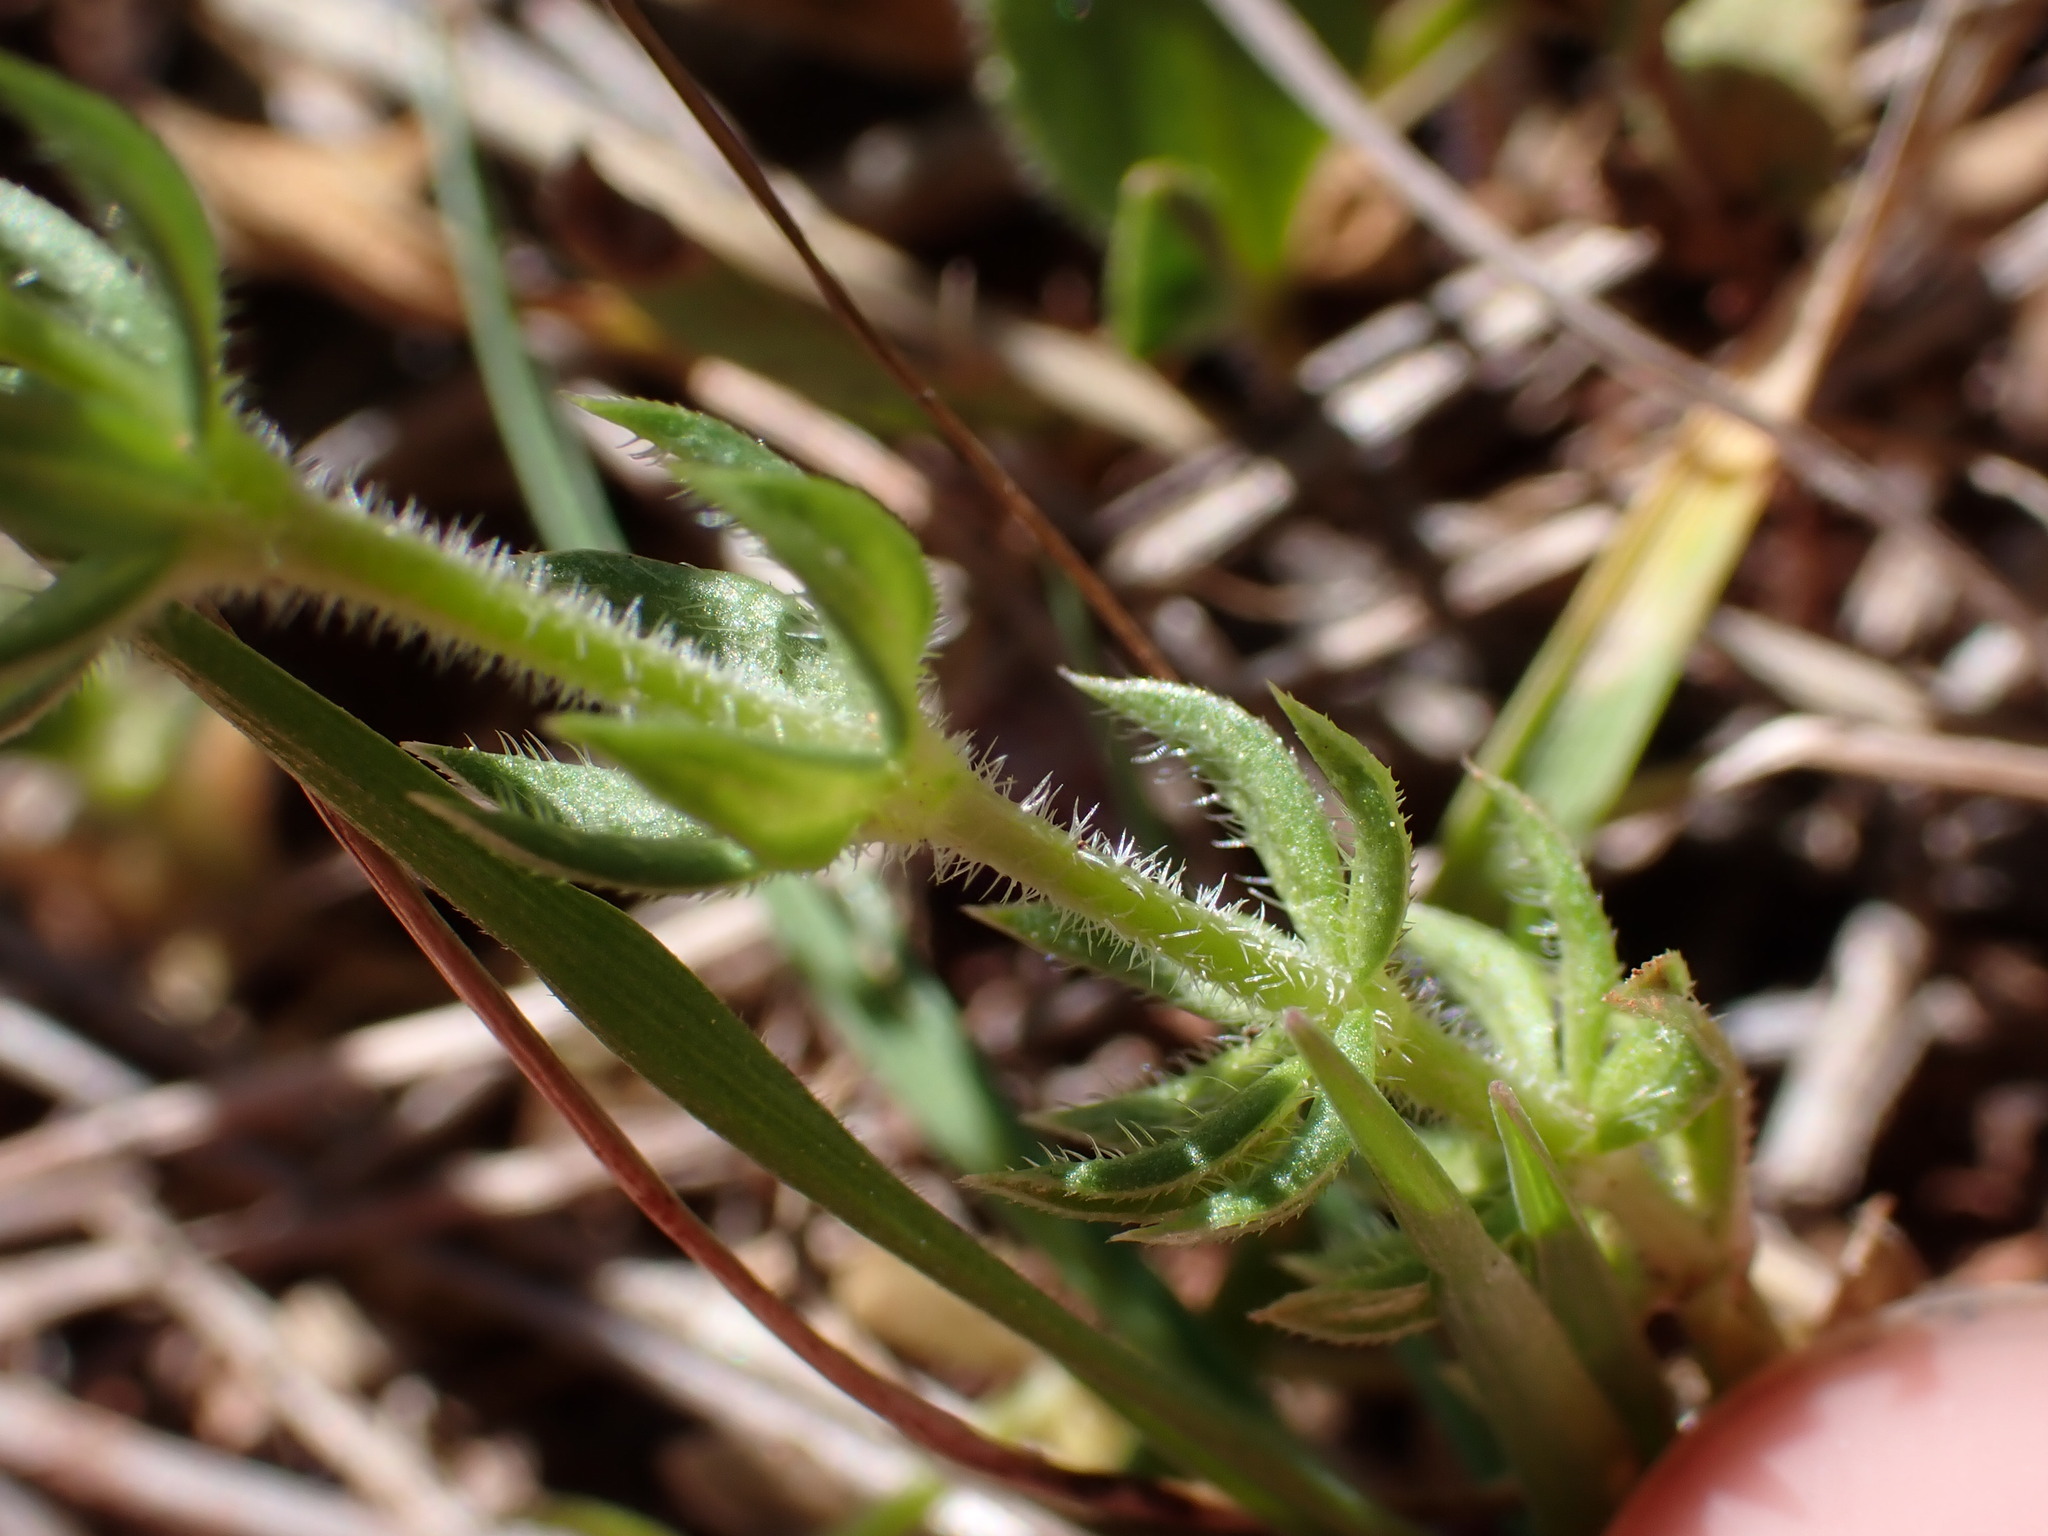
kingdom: Plantae
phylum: Tracheophyta
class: Magnoliopsida
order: Gentianales
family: Rubiaceae
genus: Sherardia
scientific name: Sherardia arvensis
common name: Field madder
